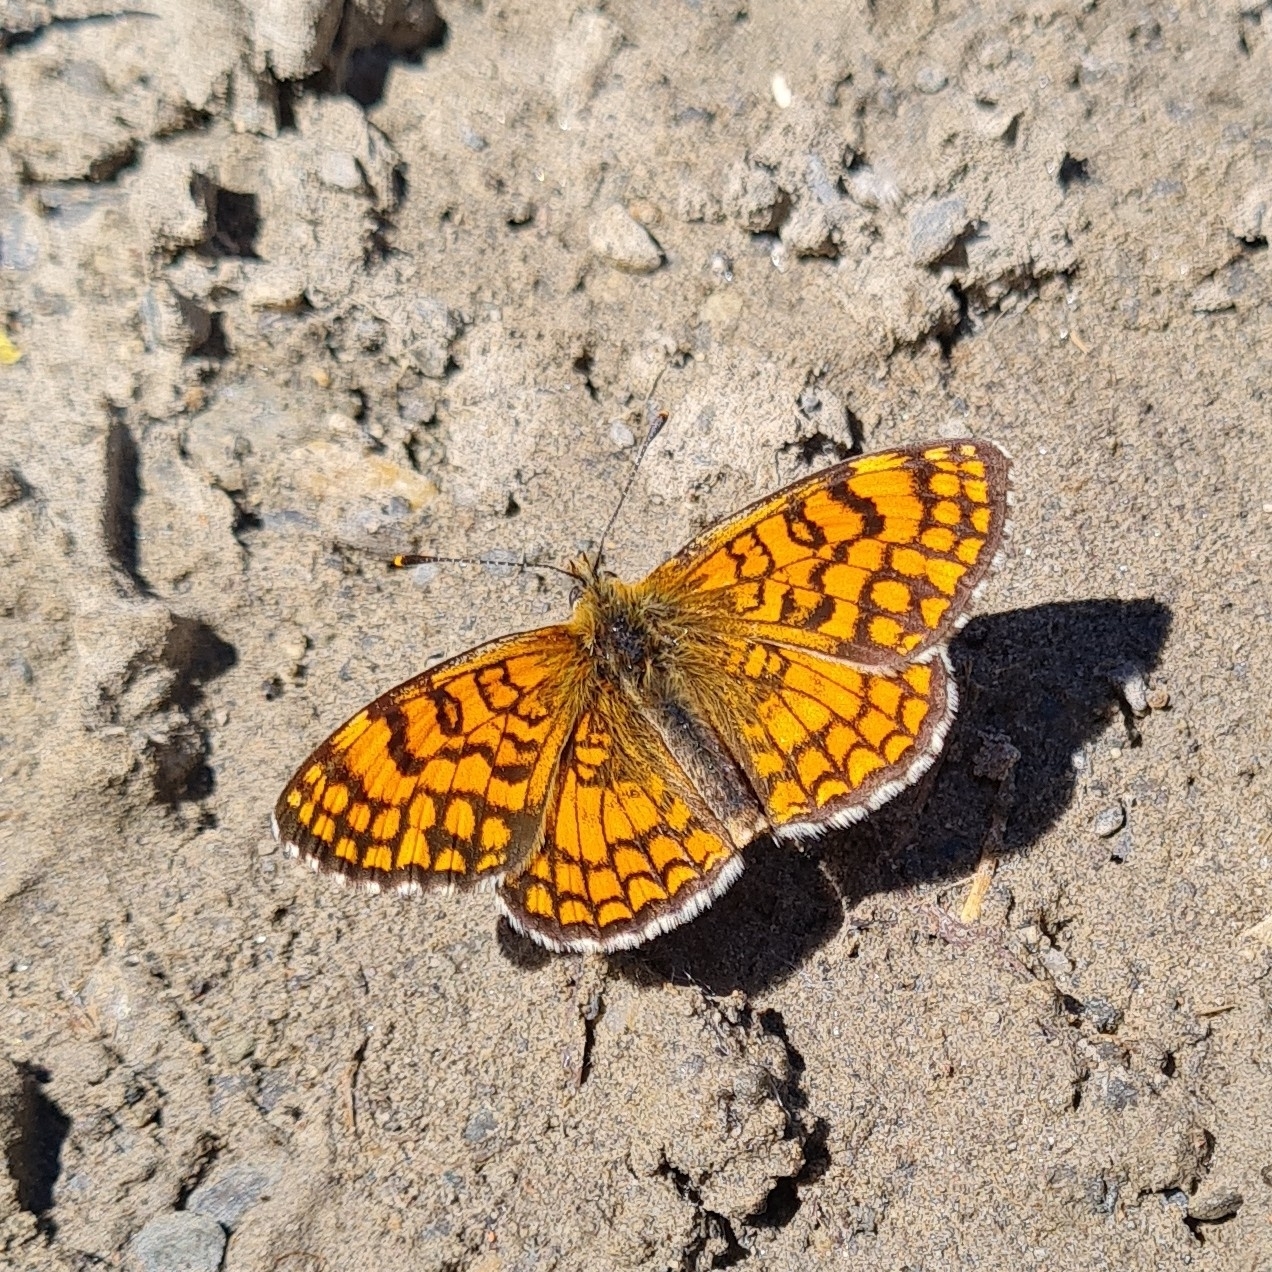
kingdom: Animalia
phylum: Arthropoda
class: Insecta
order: Lepidoptera
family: Nymphalidae
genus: Mellicta
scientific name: Mellicta parthenoides
